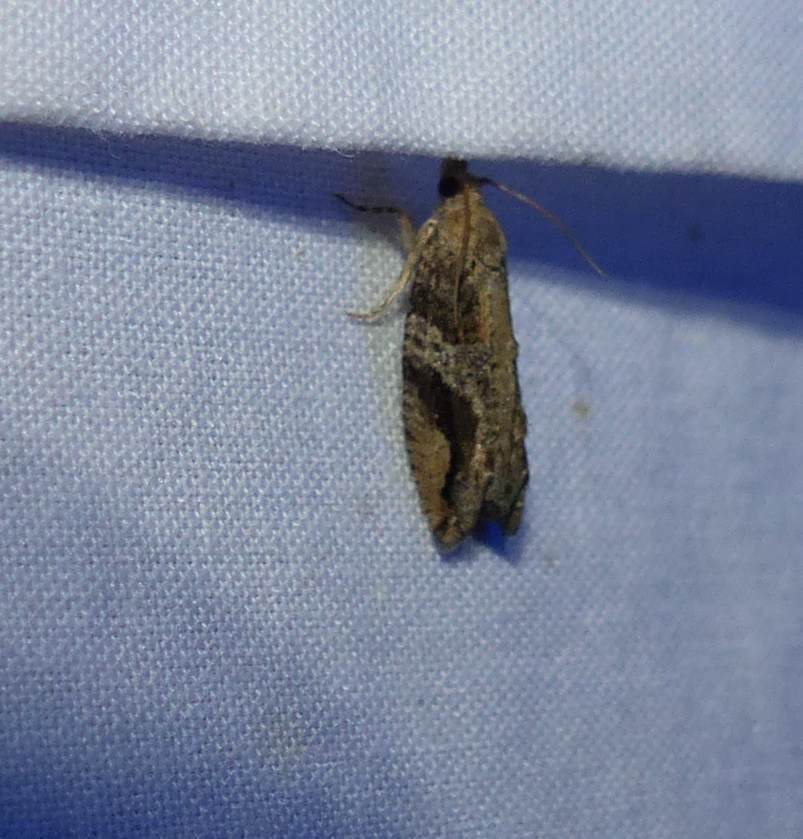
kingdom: Animalia
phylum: Arthropoda
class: Insecta
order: Lepidoptera
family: Tortricidae
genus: Proteoteras
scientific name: Proteoteras crescentana
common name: Black-crescent proteoteras moth
